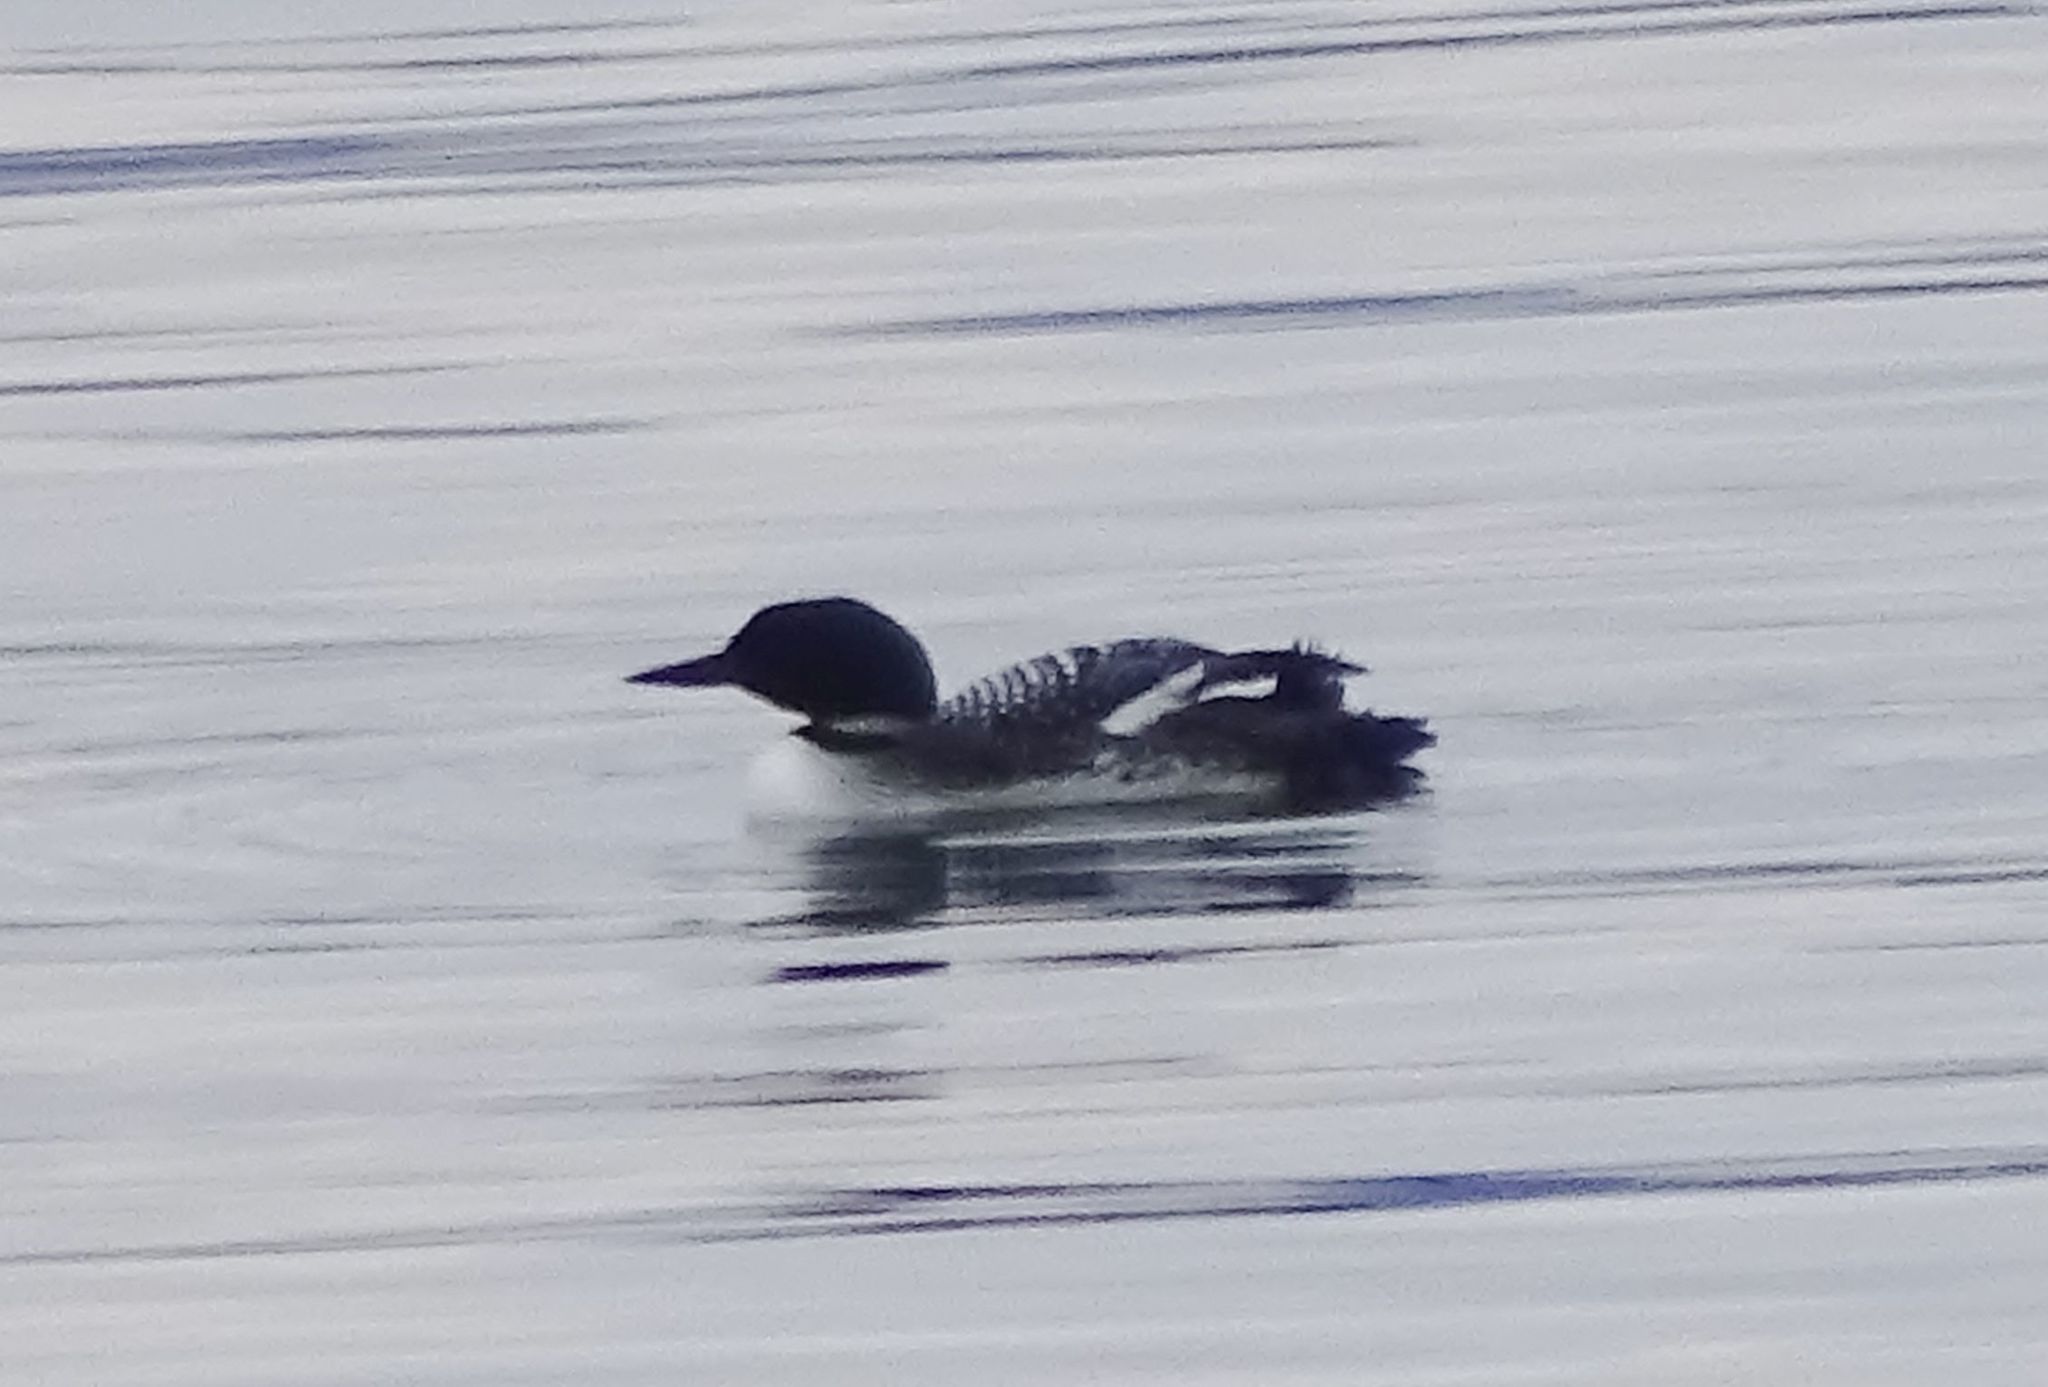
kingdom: Animalia
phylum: Chordata
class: Aves
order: Gaviiformes
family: Gaviidae
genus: Gavia
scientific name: Gavia immer
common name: Common loon
